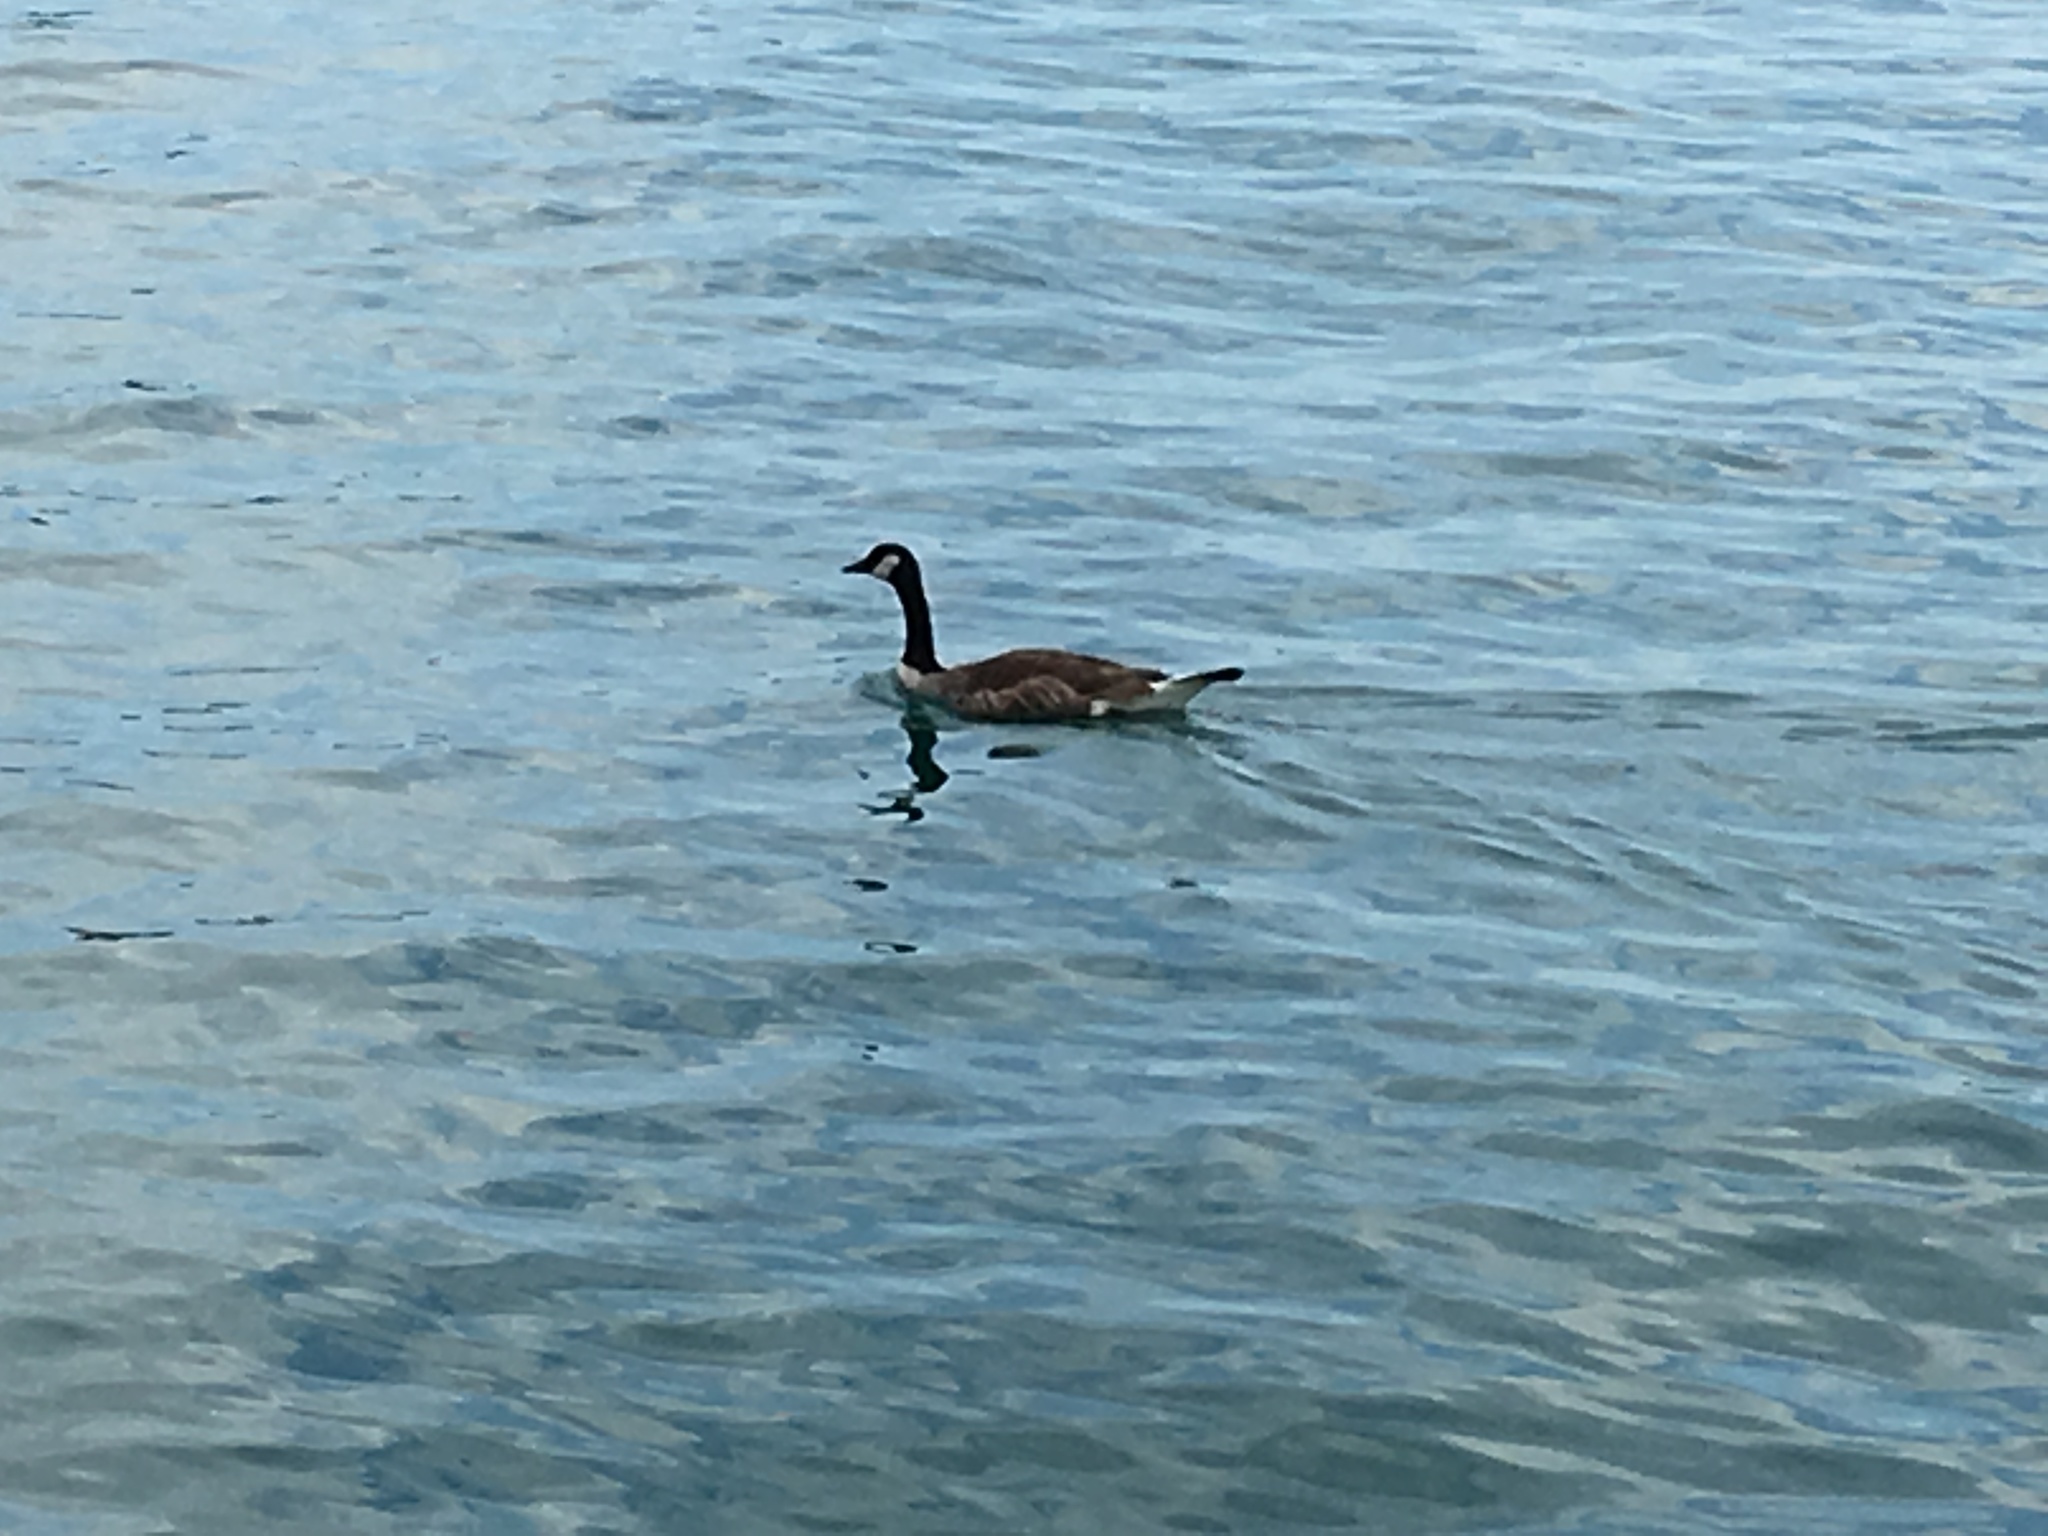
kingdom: Animalia
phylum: Chordata
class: Aves
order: Anseriformes
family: Anatidae
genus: Branta
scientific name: Branta canadensis
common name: Canada goose
